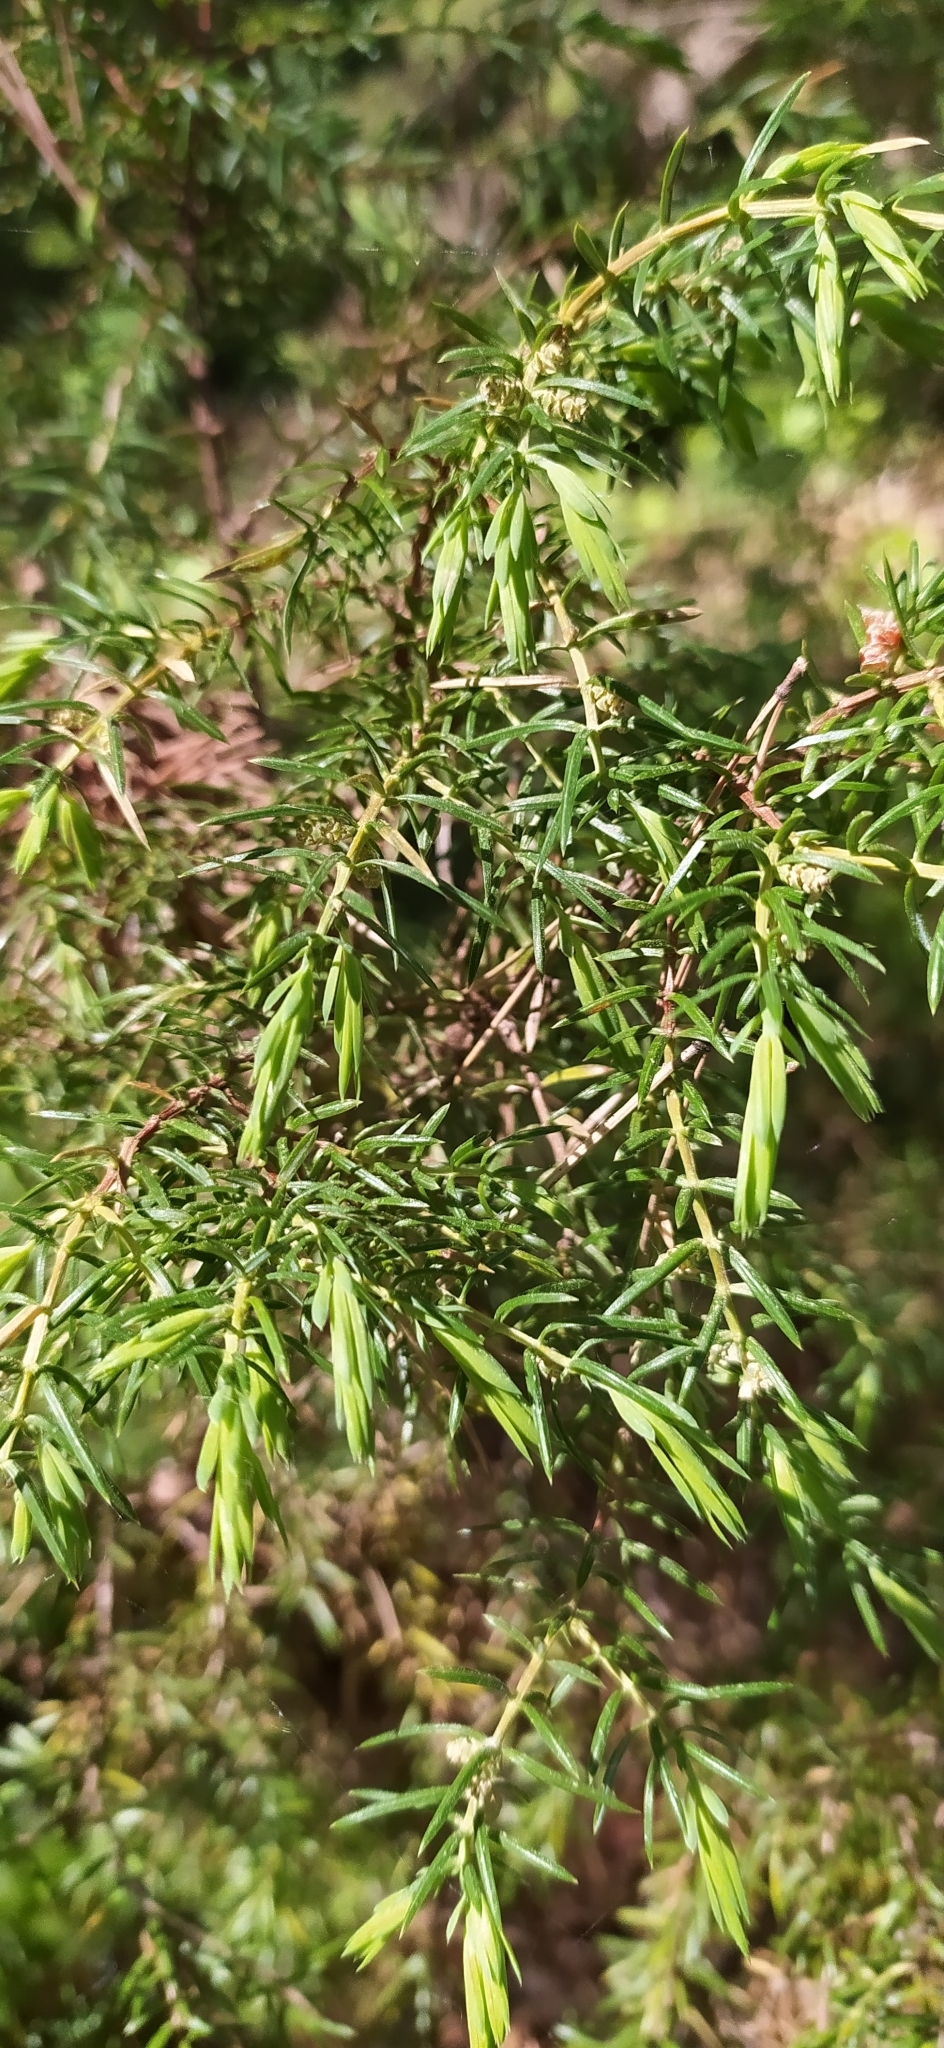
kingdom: Plantae
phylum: Tracheophyta
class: Pinopsida
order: Pinales
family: Cupressaceae
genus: Juniperus
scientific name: Juniperus communis
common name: Common juniper
